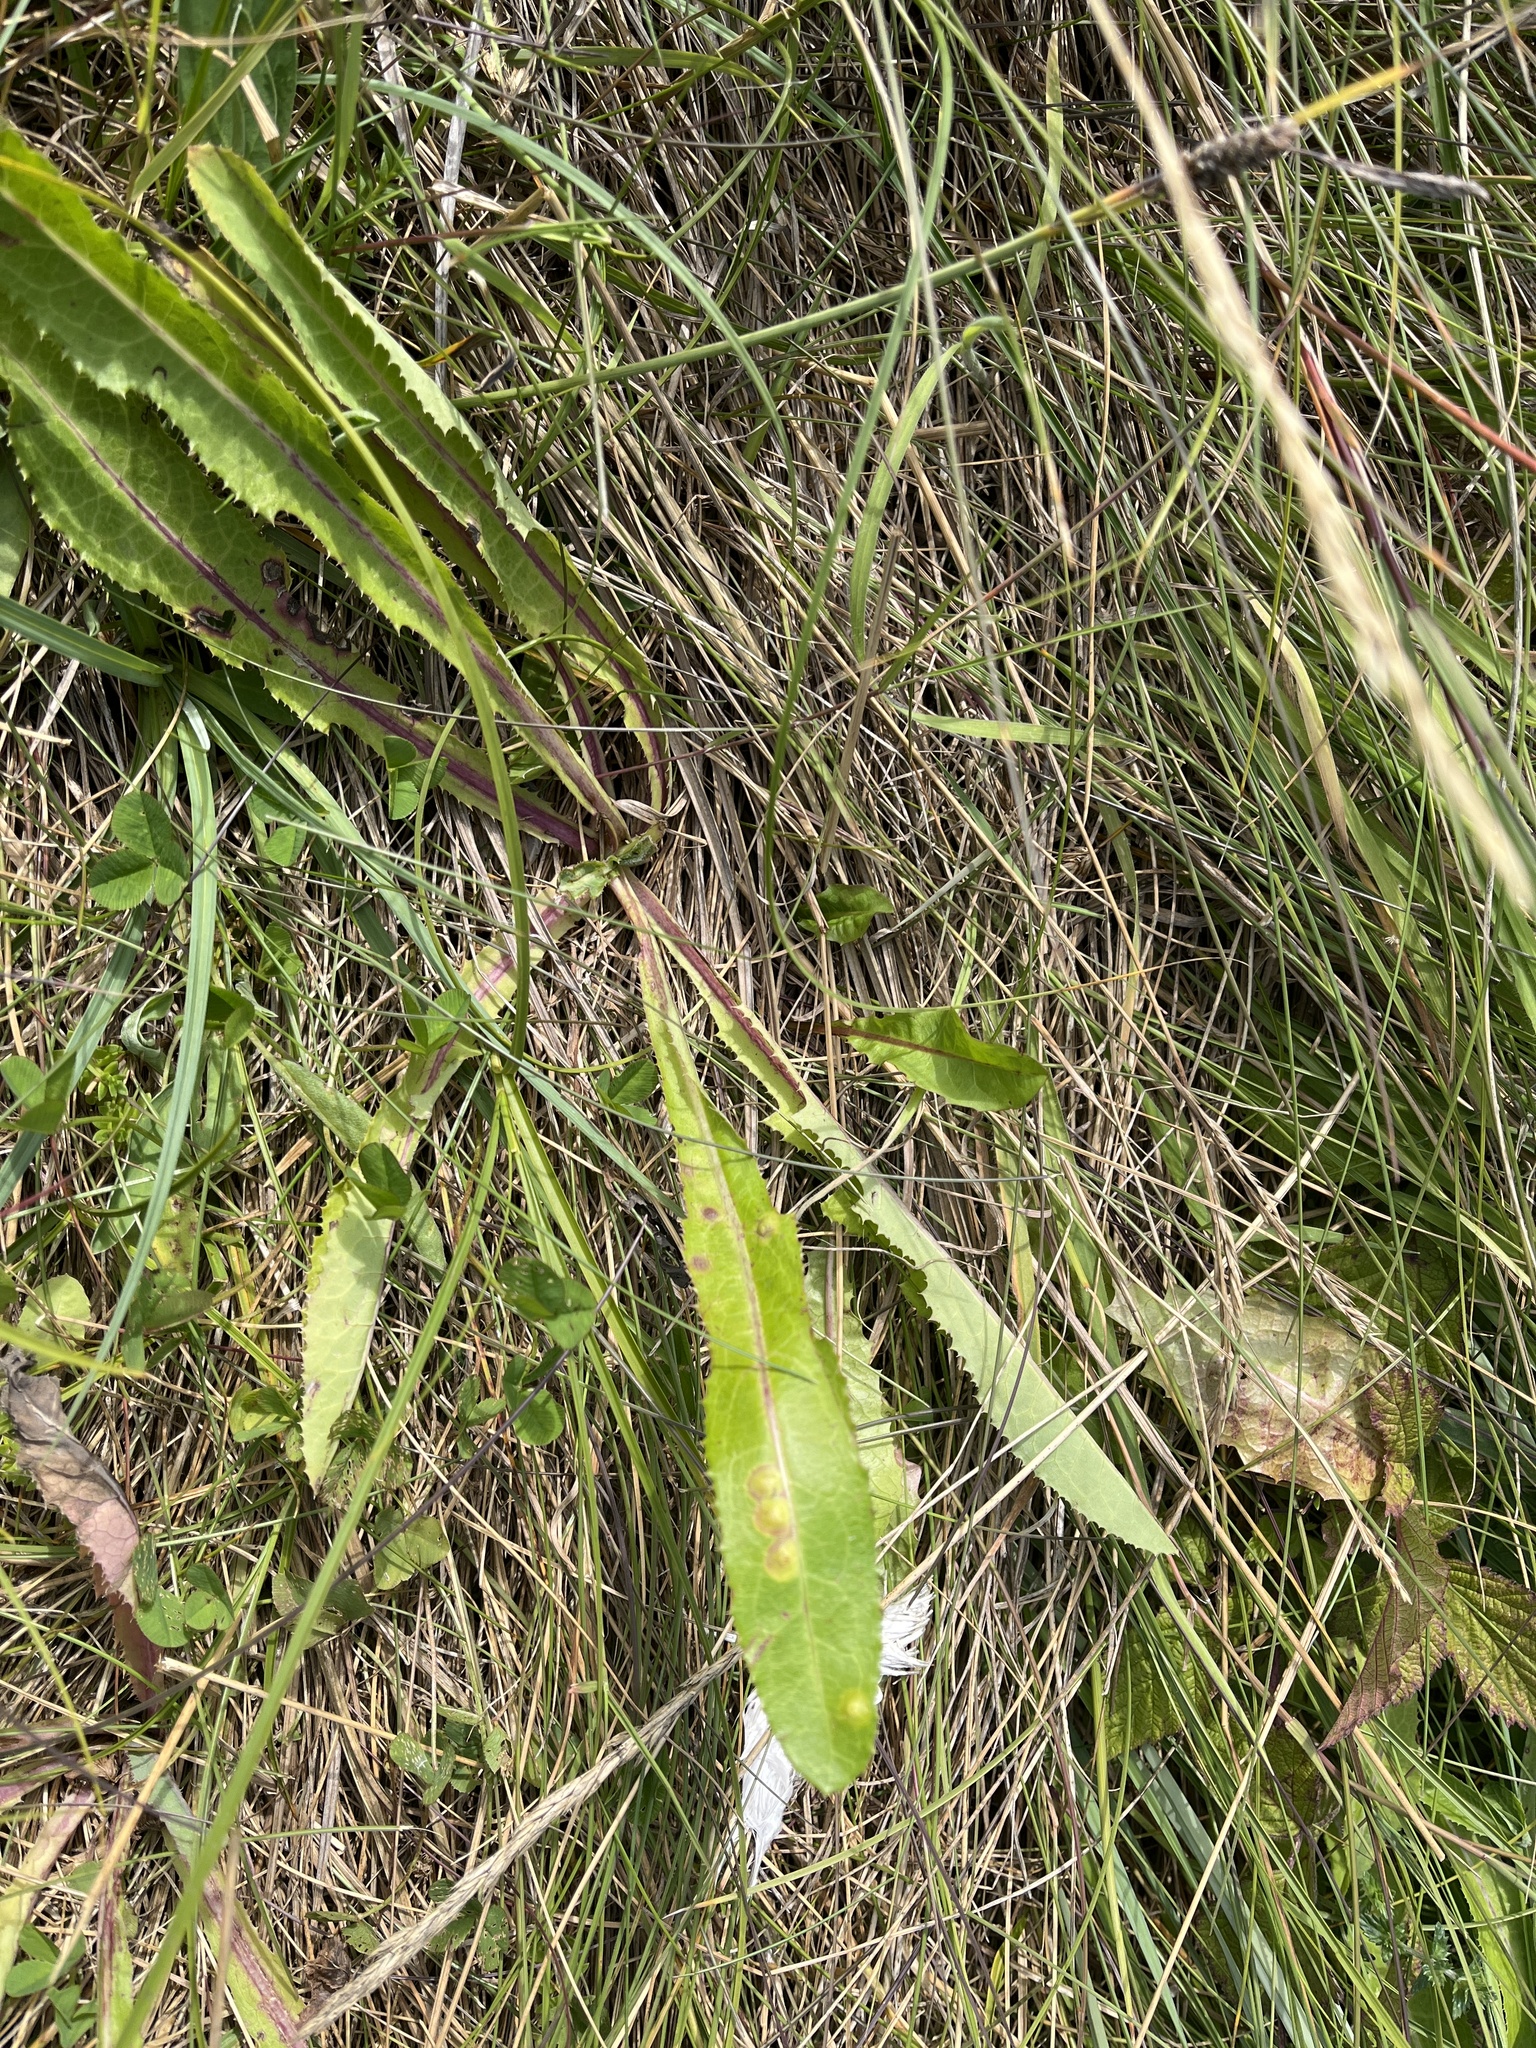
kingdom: Animalia
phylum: Arthropoda
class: Insecta
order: Diptera
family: Cecidomyiidae
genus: Cystiphora
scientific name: Cystiphora sonchi
